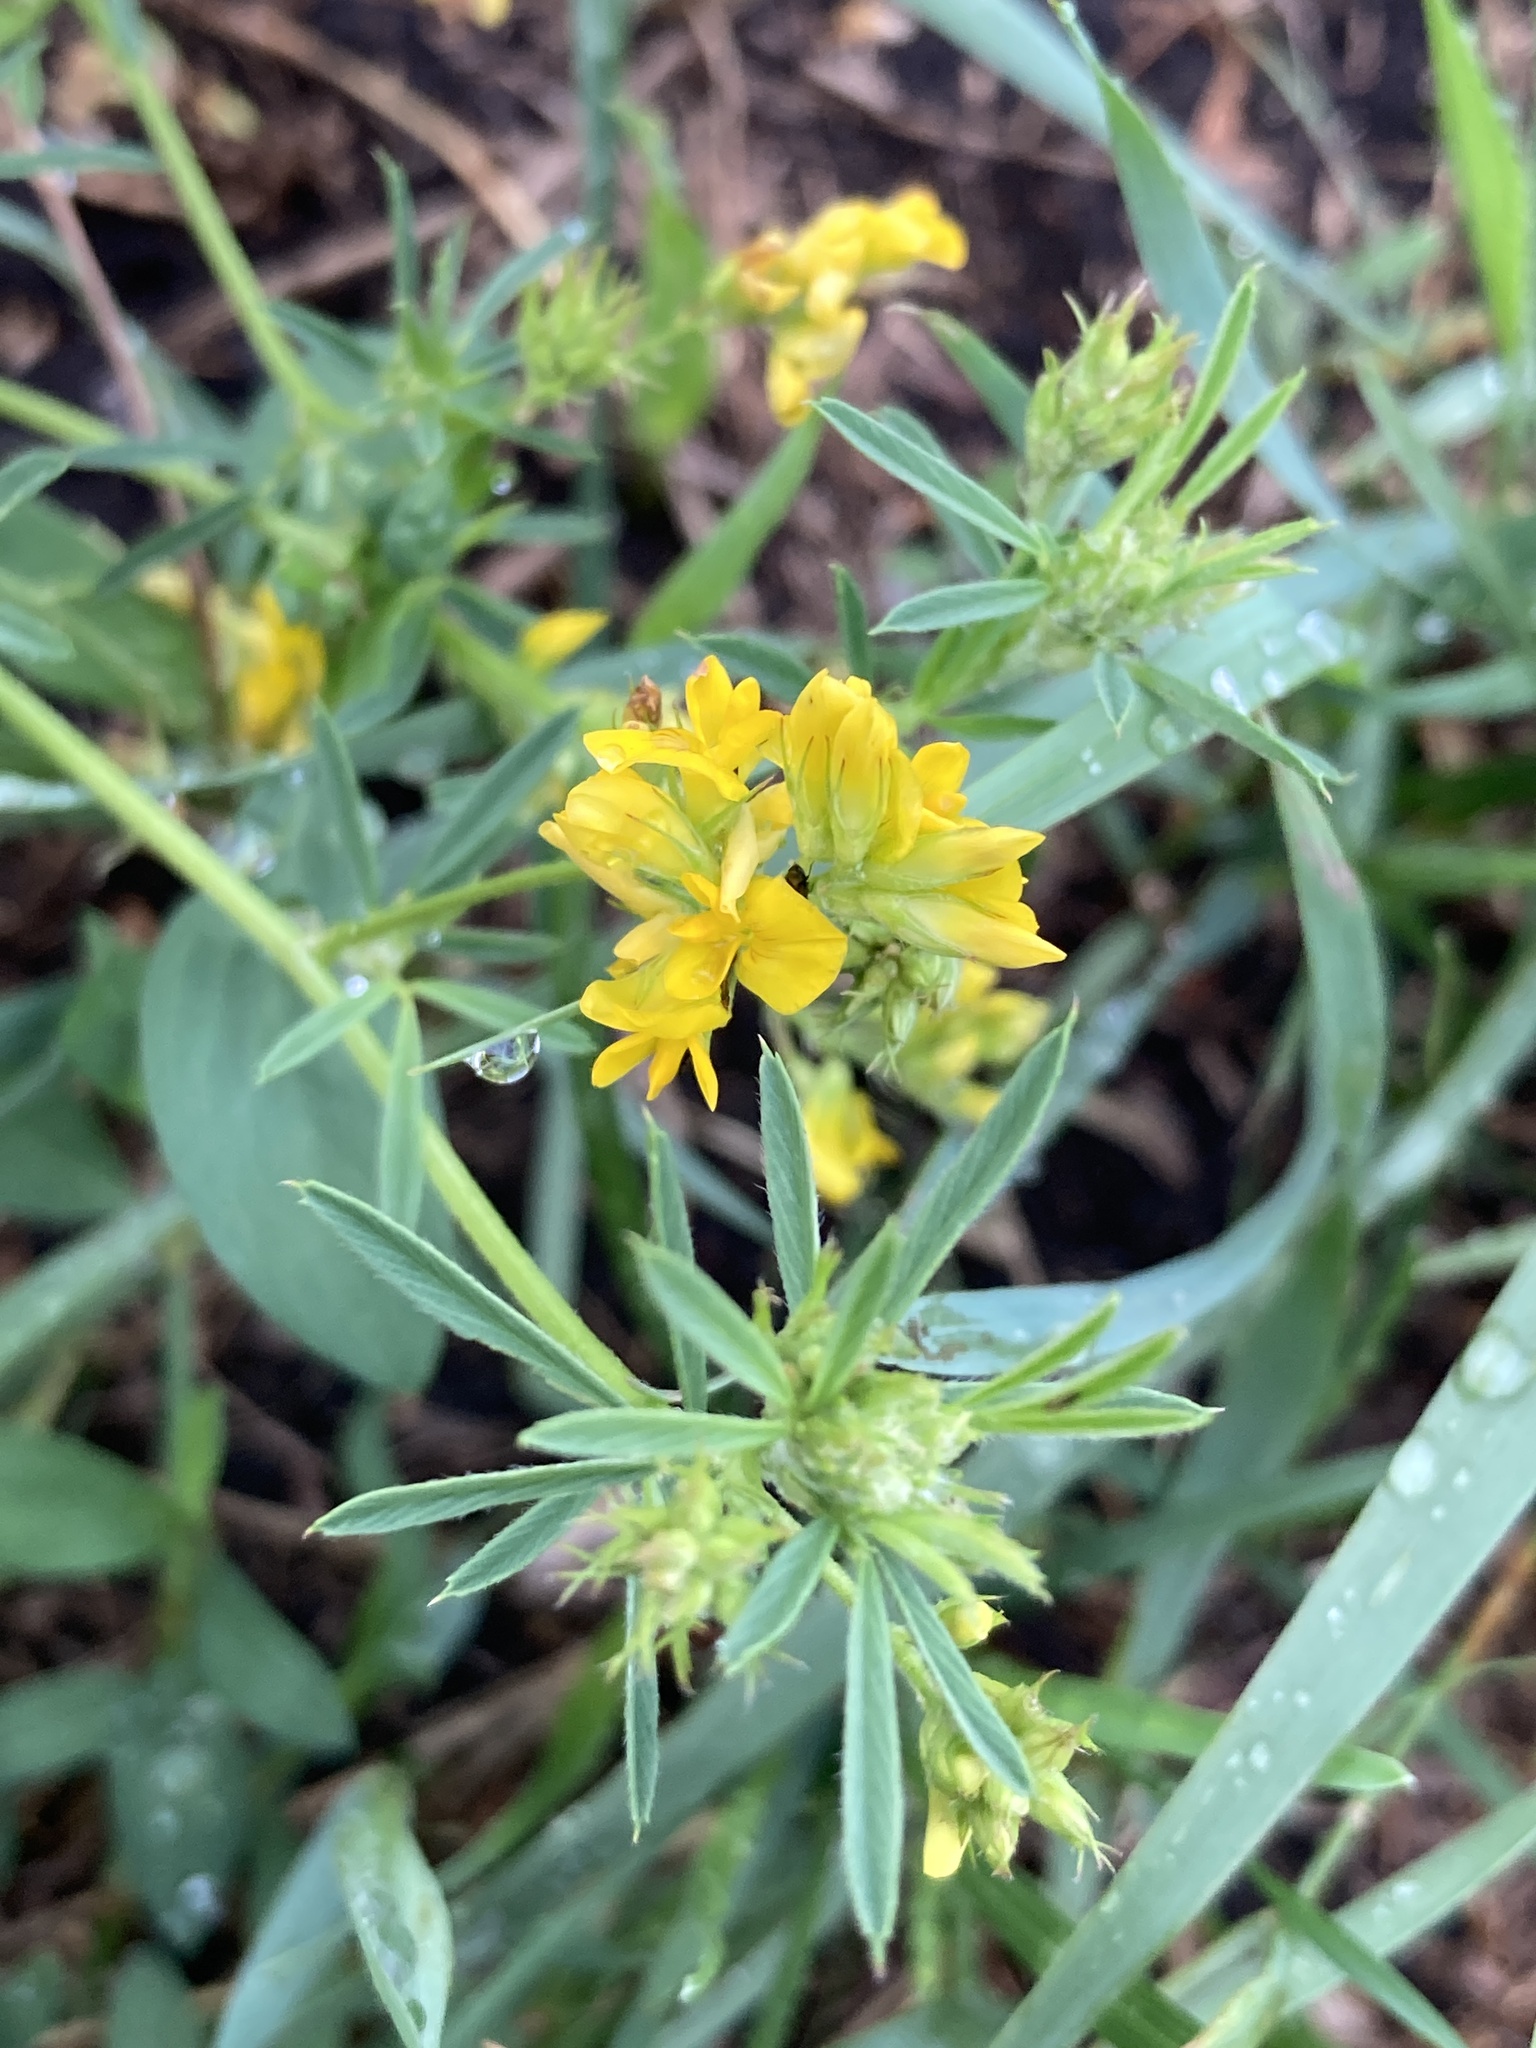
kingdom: Plantae
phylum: Tracheophyta
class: Magnoliopsida
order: Fabales
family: Fabaceae
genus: Medicago
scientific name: Medicago falcata
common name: Sickle medick
